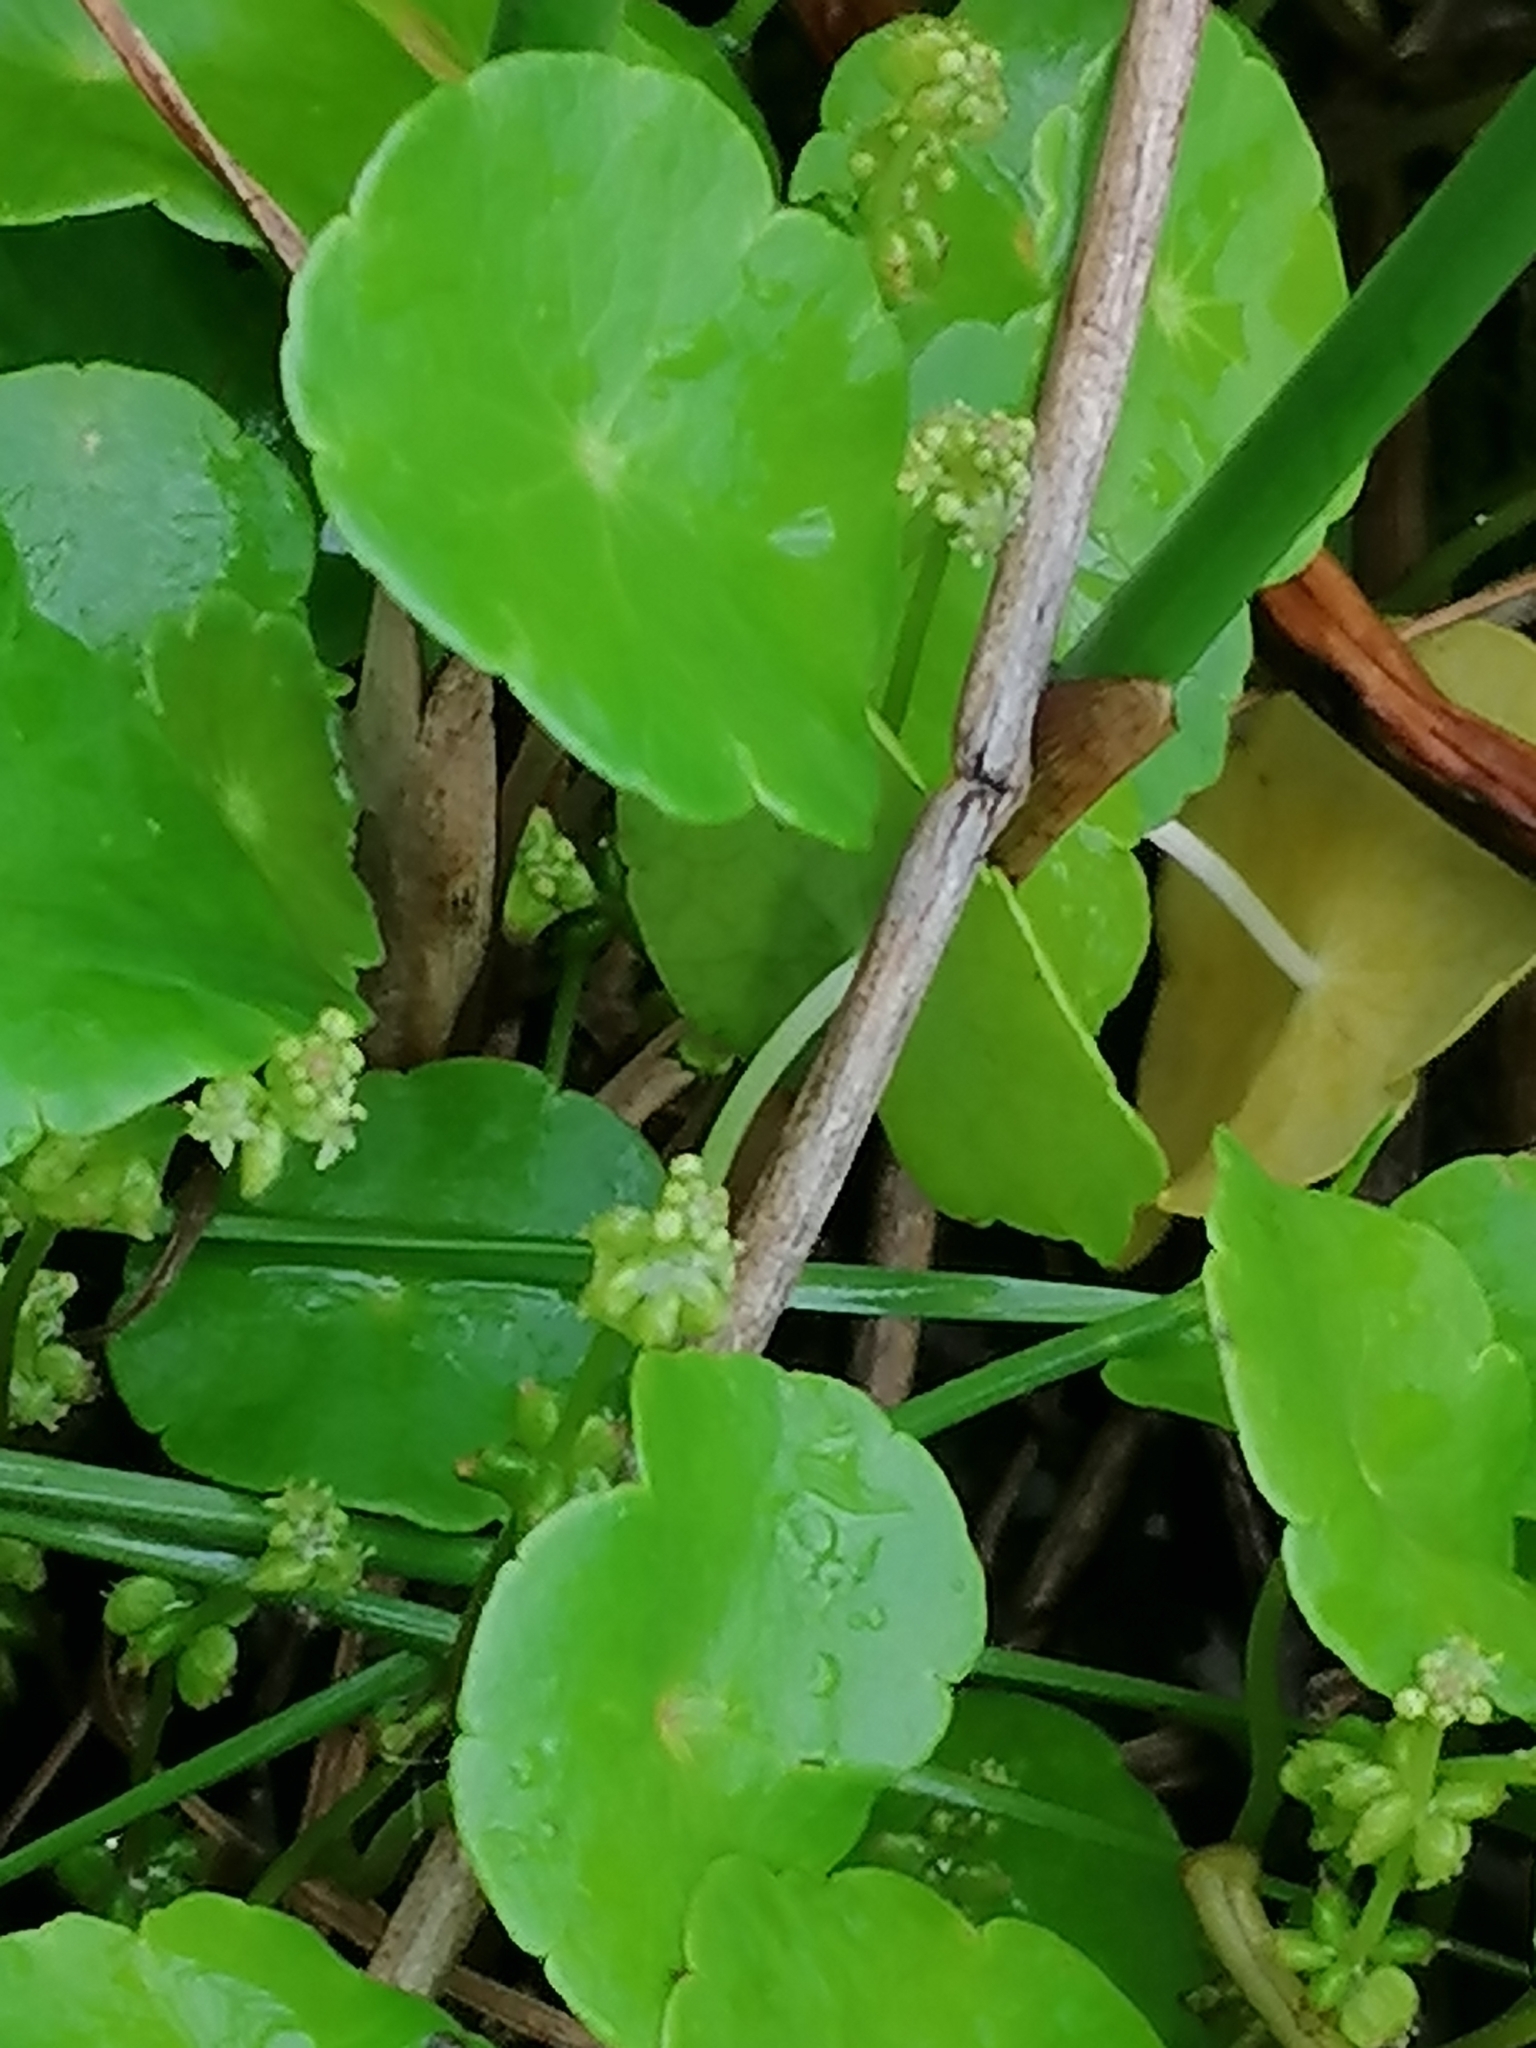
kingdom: Plantae
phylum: Tracheophyta
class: Magnoliopsida
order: Apiales
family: Araliaceae
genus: Hydrocotyle
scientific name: Hydrocotyle verticillata
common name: Whorled marshpennywort
